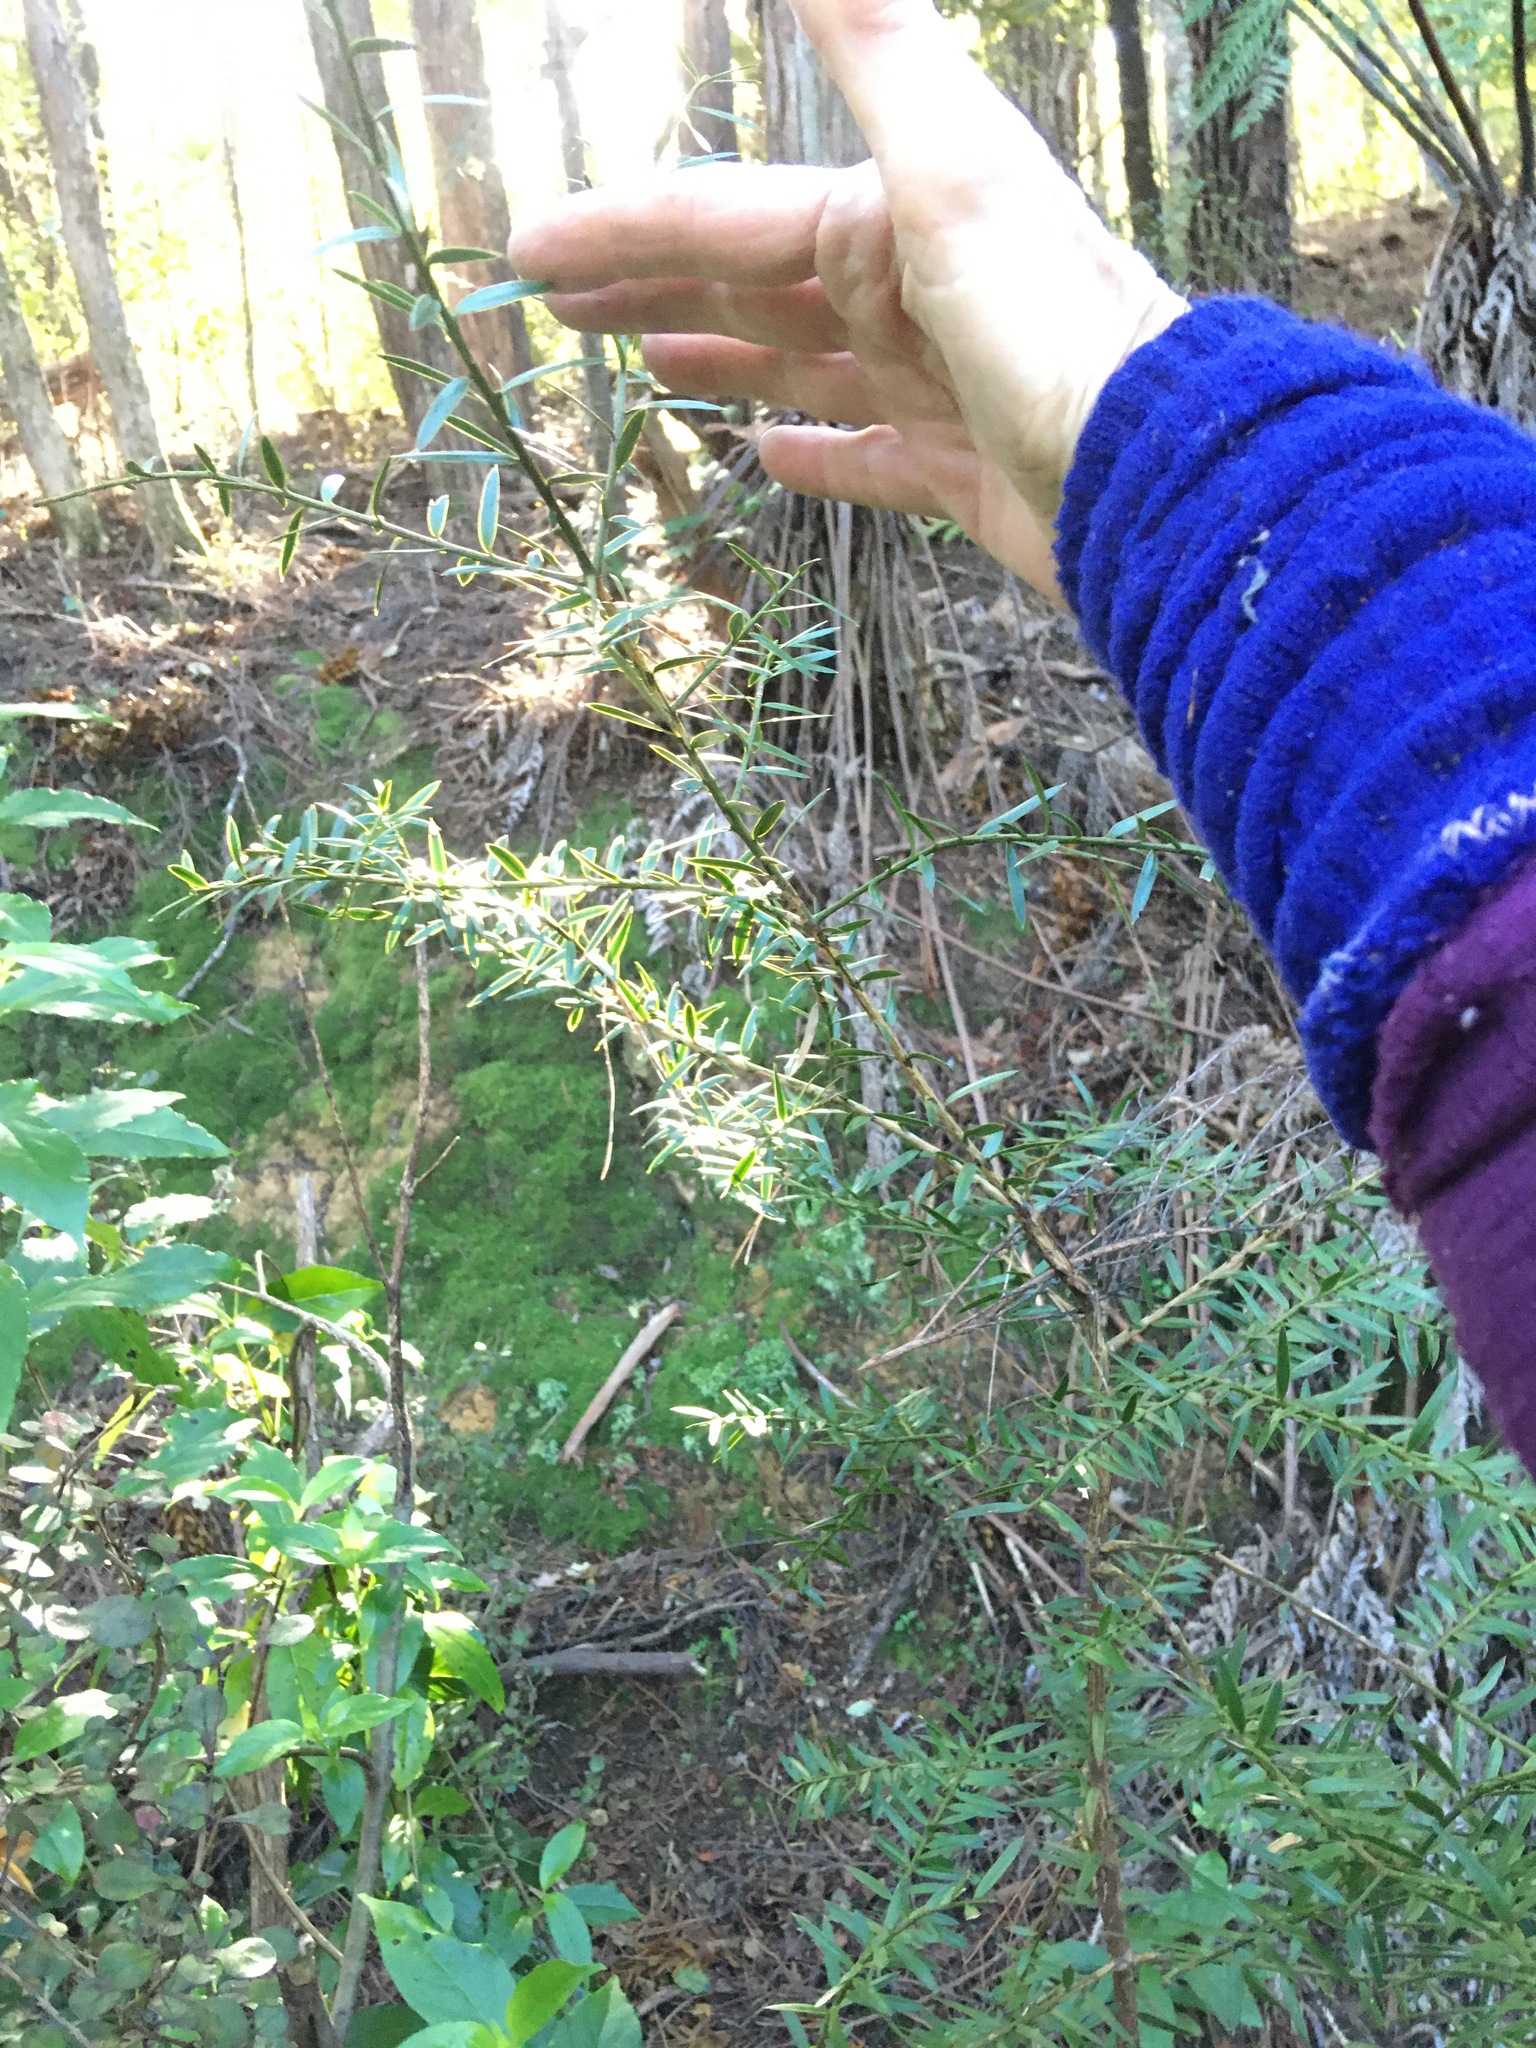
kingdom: Plantae
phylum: Tracheophyta
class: Pinopsida
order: Pinales
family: Podocarpaceae
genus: Podocarpus
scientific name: Podocarpus totara
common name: Totara
